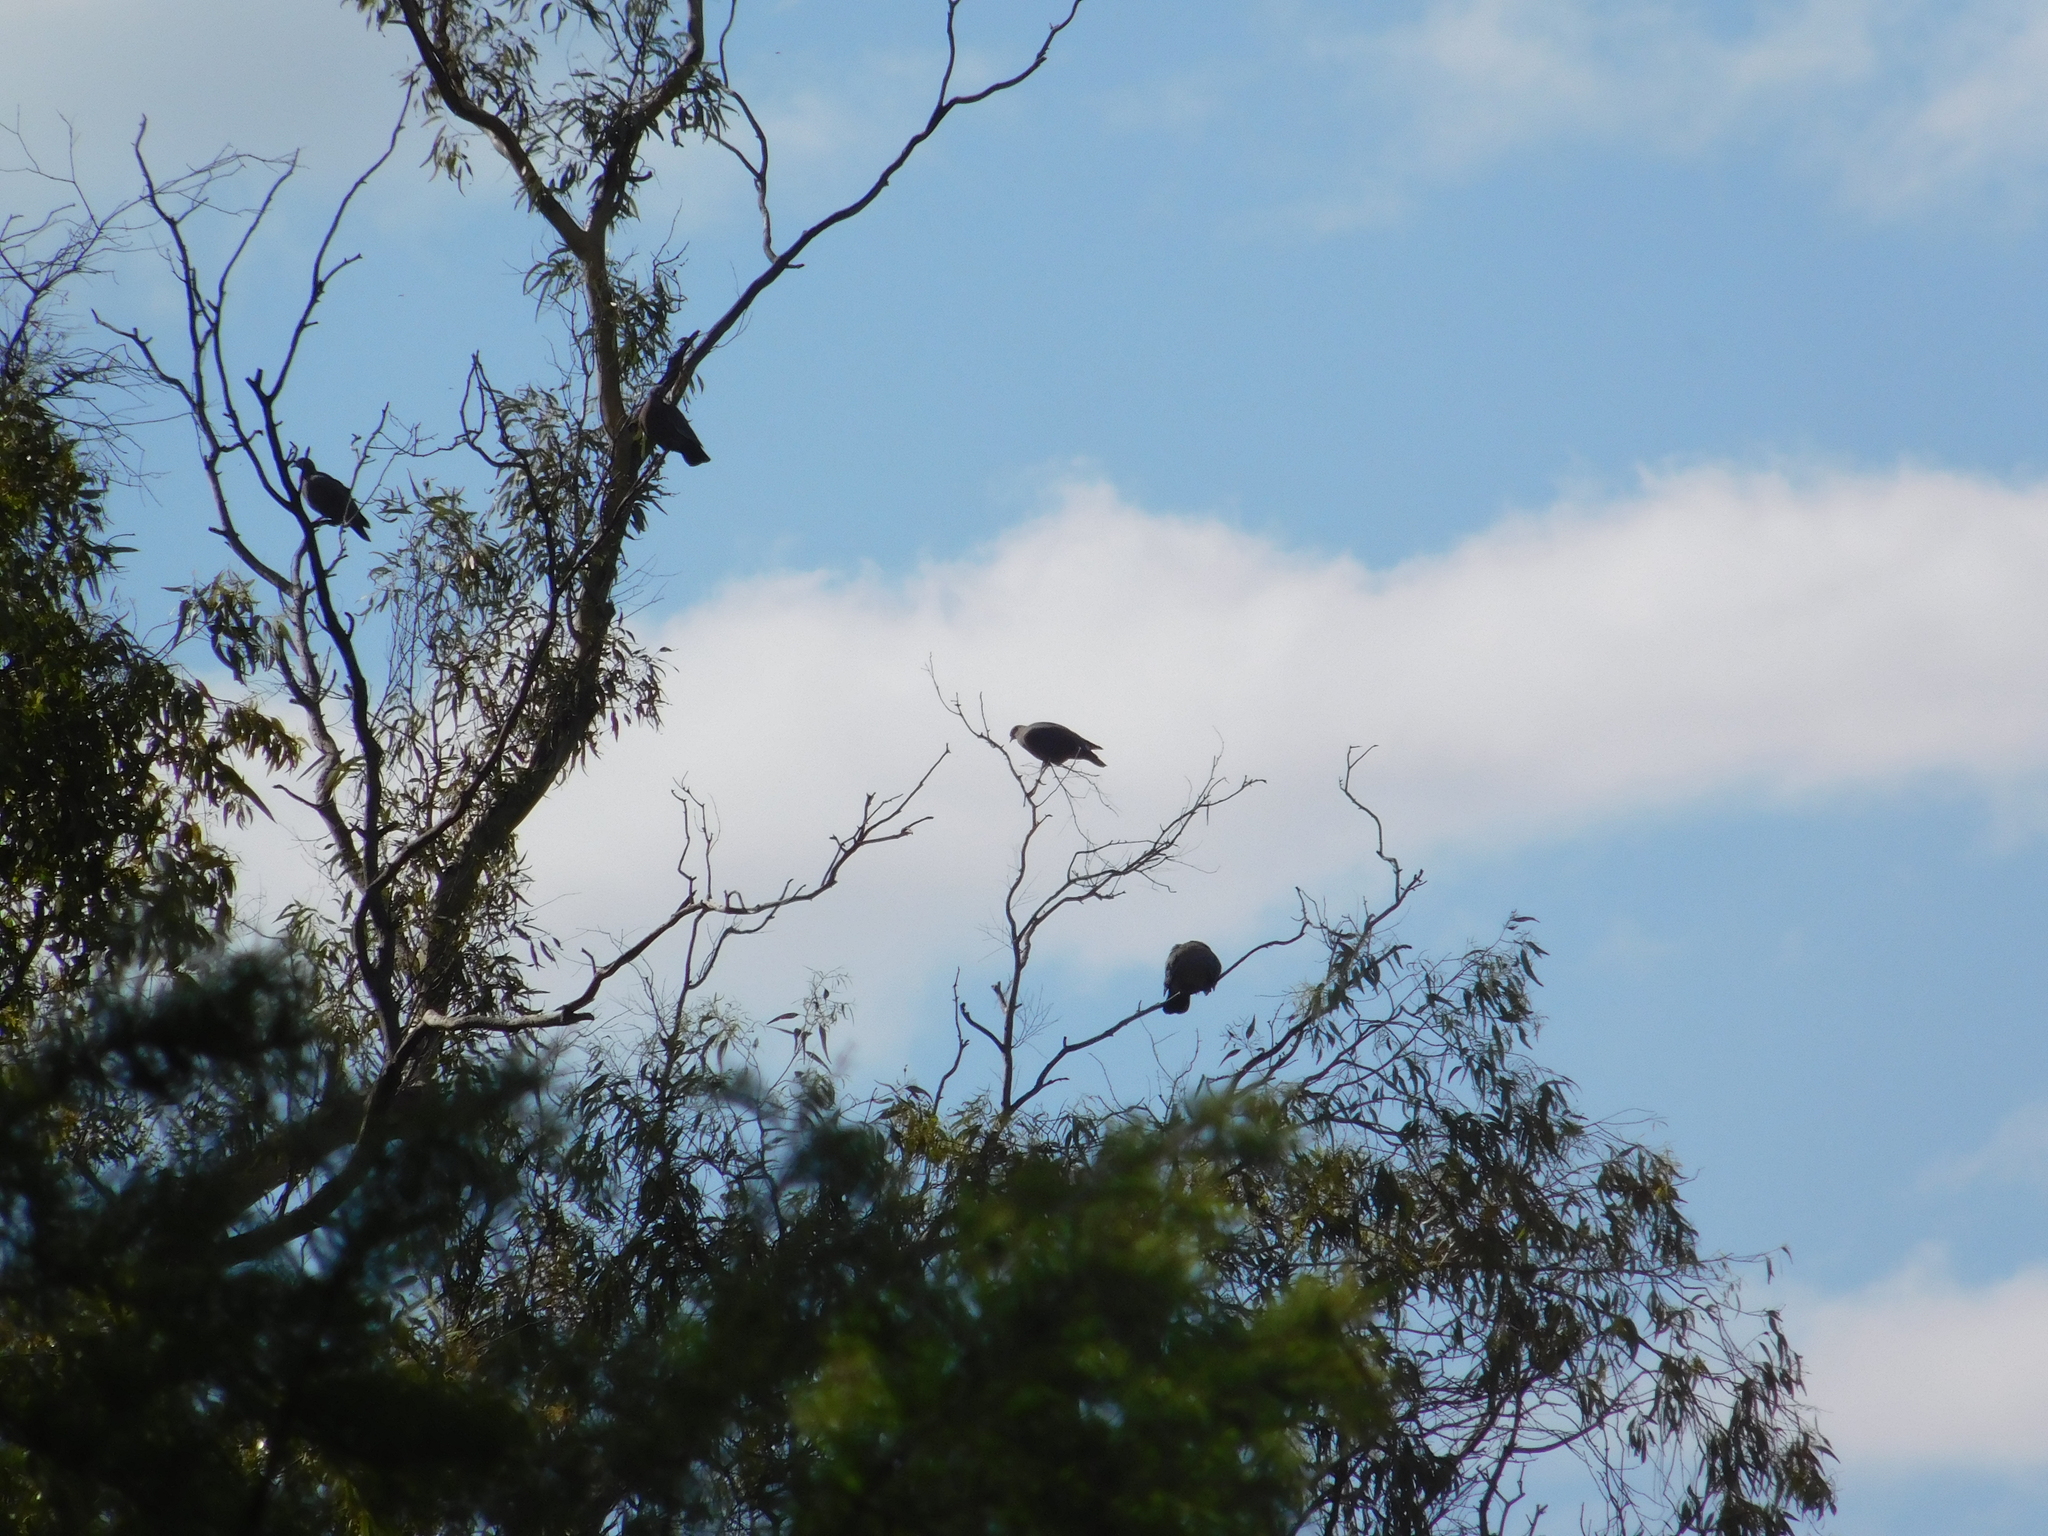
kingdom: Animalia
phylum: Chordata
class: Aves
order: Columbiformes
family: Columbidae
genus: Patagioenas
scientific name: Patagioenas picazuro
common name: Picazuro pigeon
